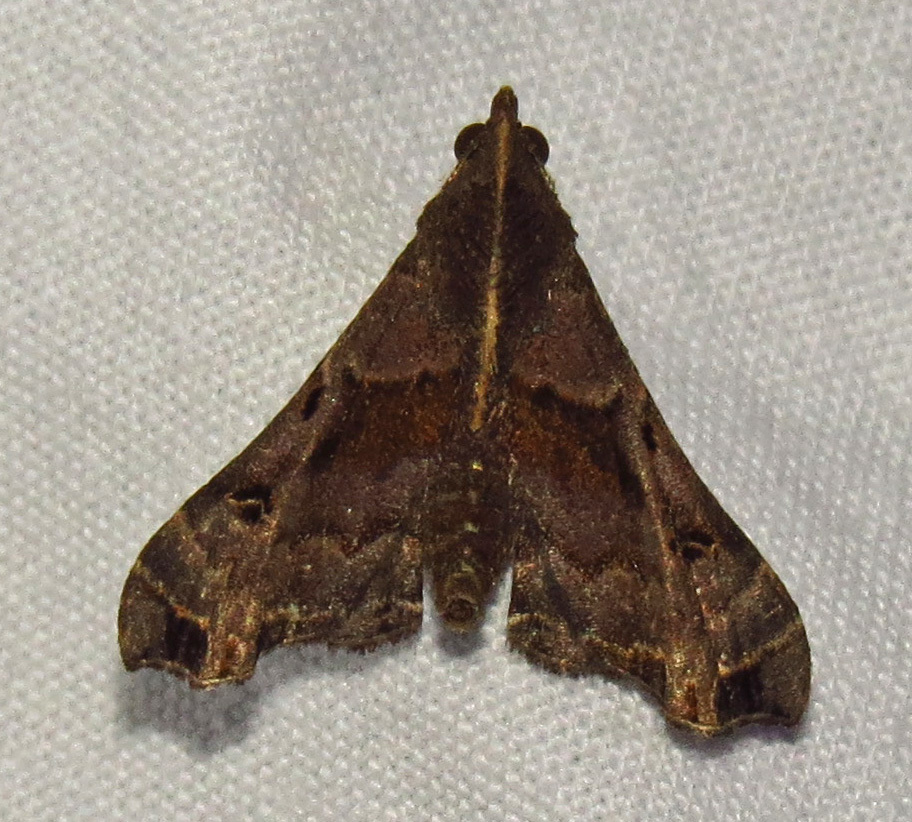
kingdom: Animalia
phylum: Arthropoda
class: Insecta
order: Lepidoptera
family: Erebidae
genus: Palthis
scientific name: Palthis asopialis
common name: Faint-spotted palthis moth
